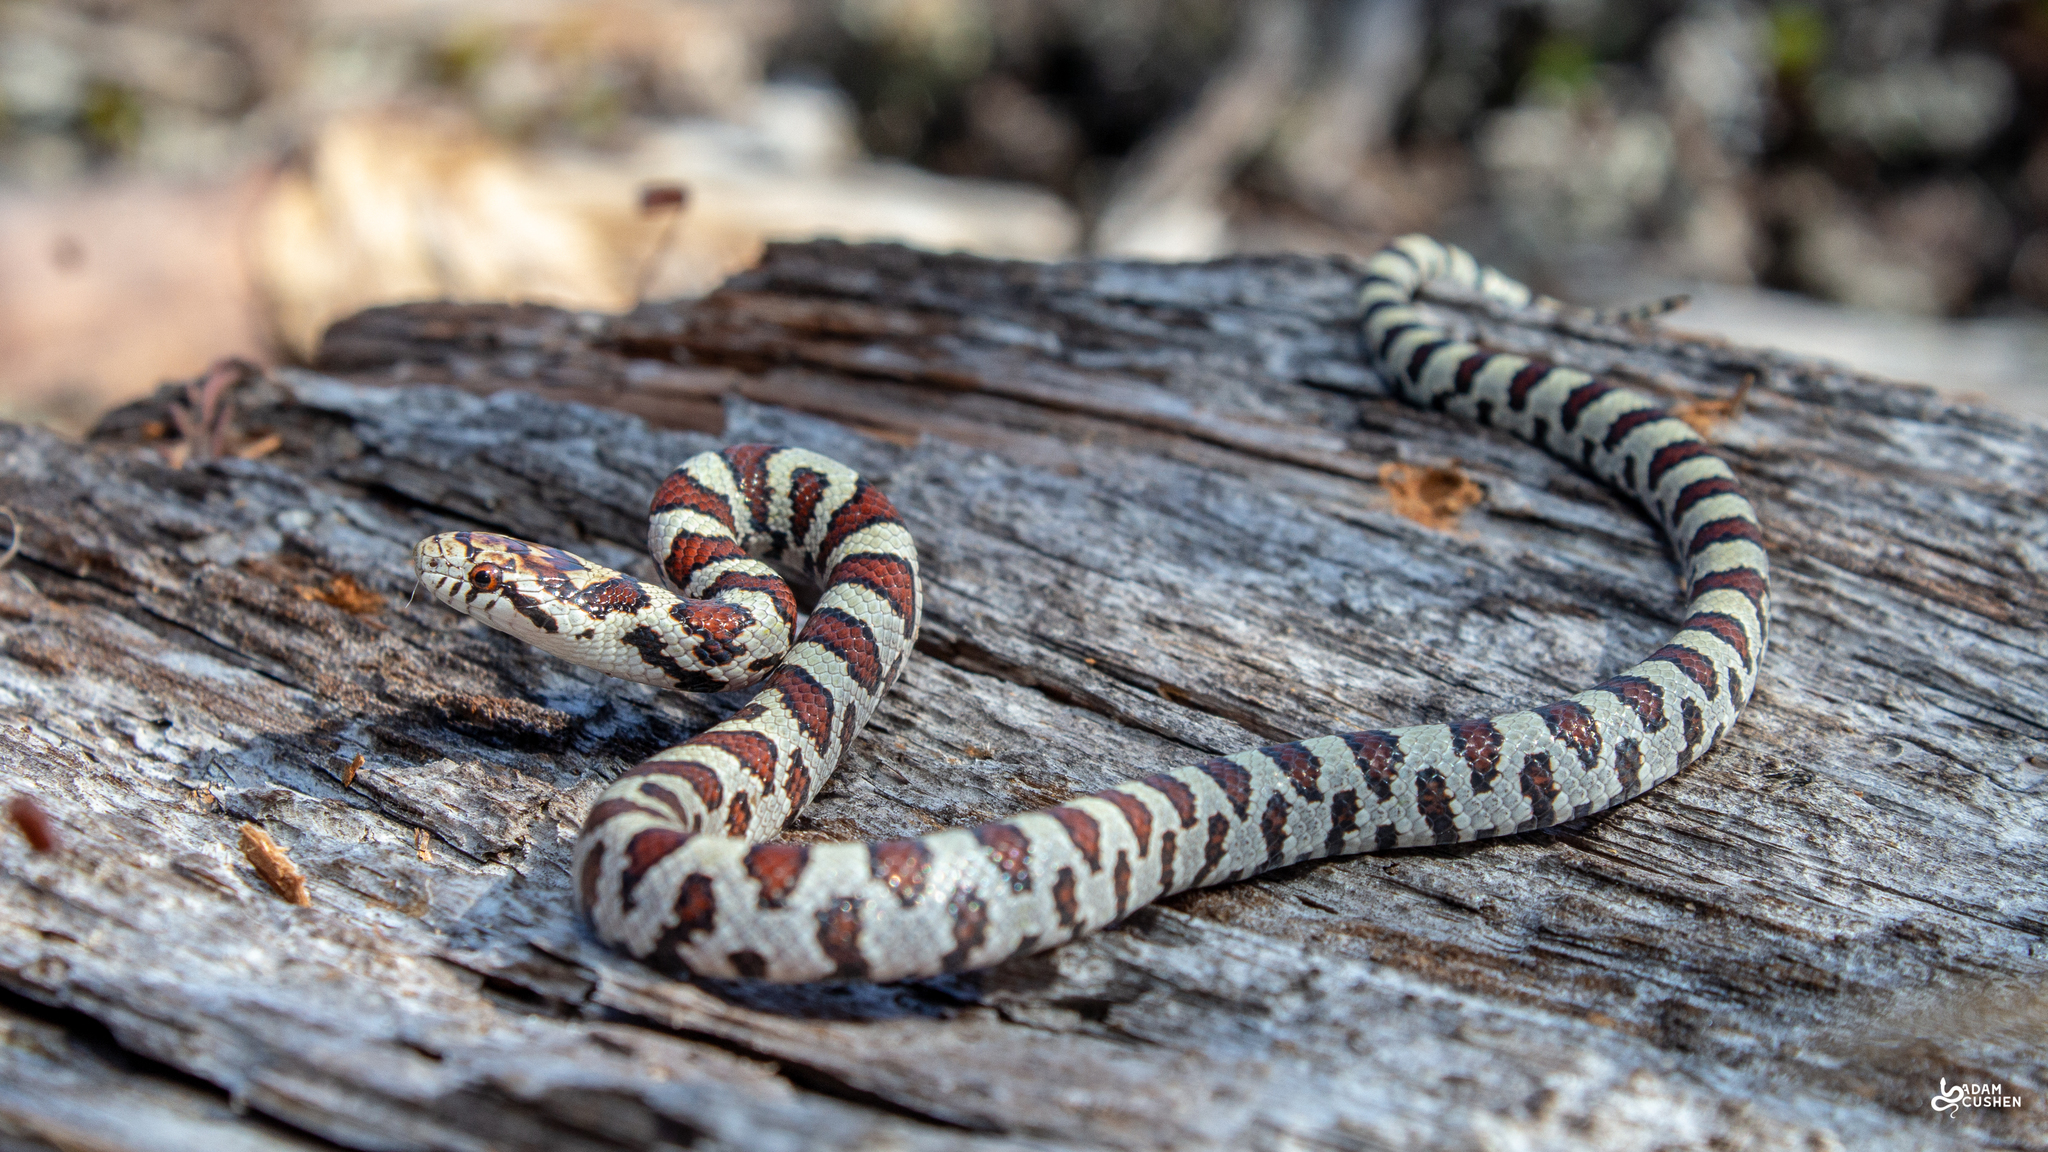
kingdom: Animalia
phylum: Chordata
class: Squamata
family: Colubridae
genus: Lampropeltis
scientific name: Lampropeltis triangulum
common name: Eastern milksnake
